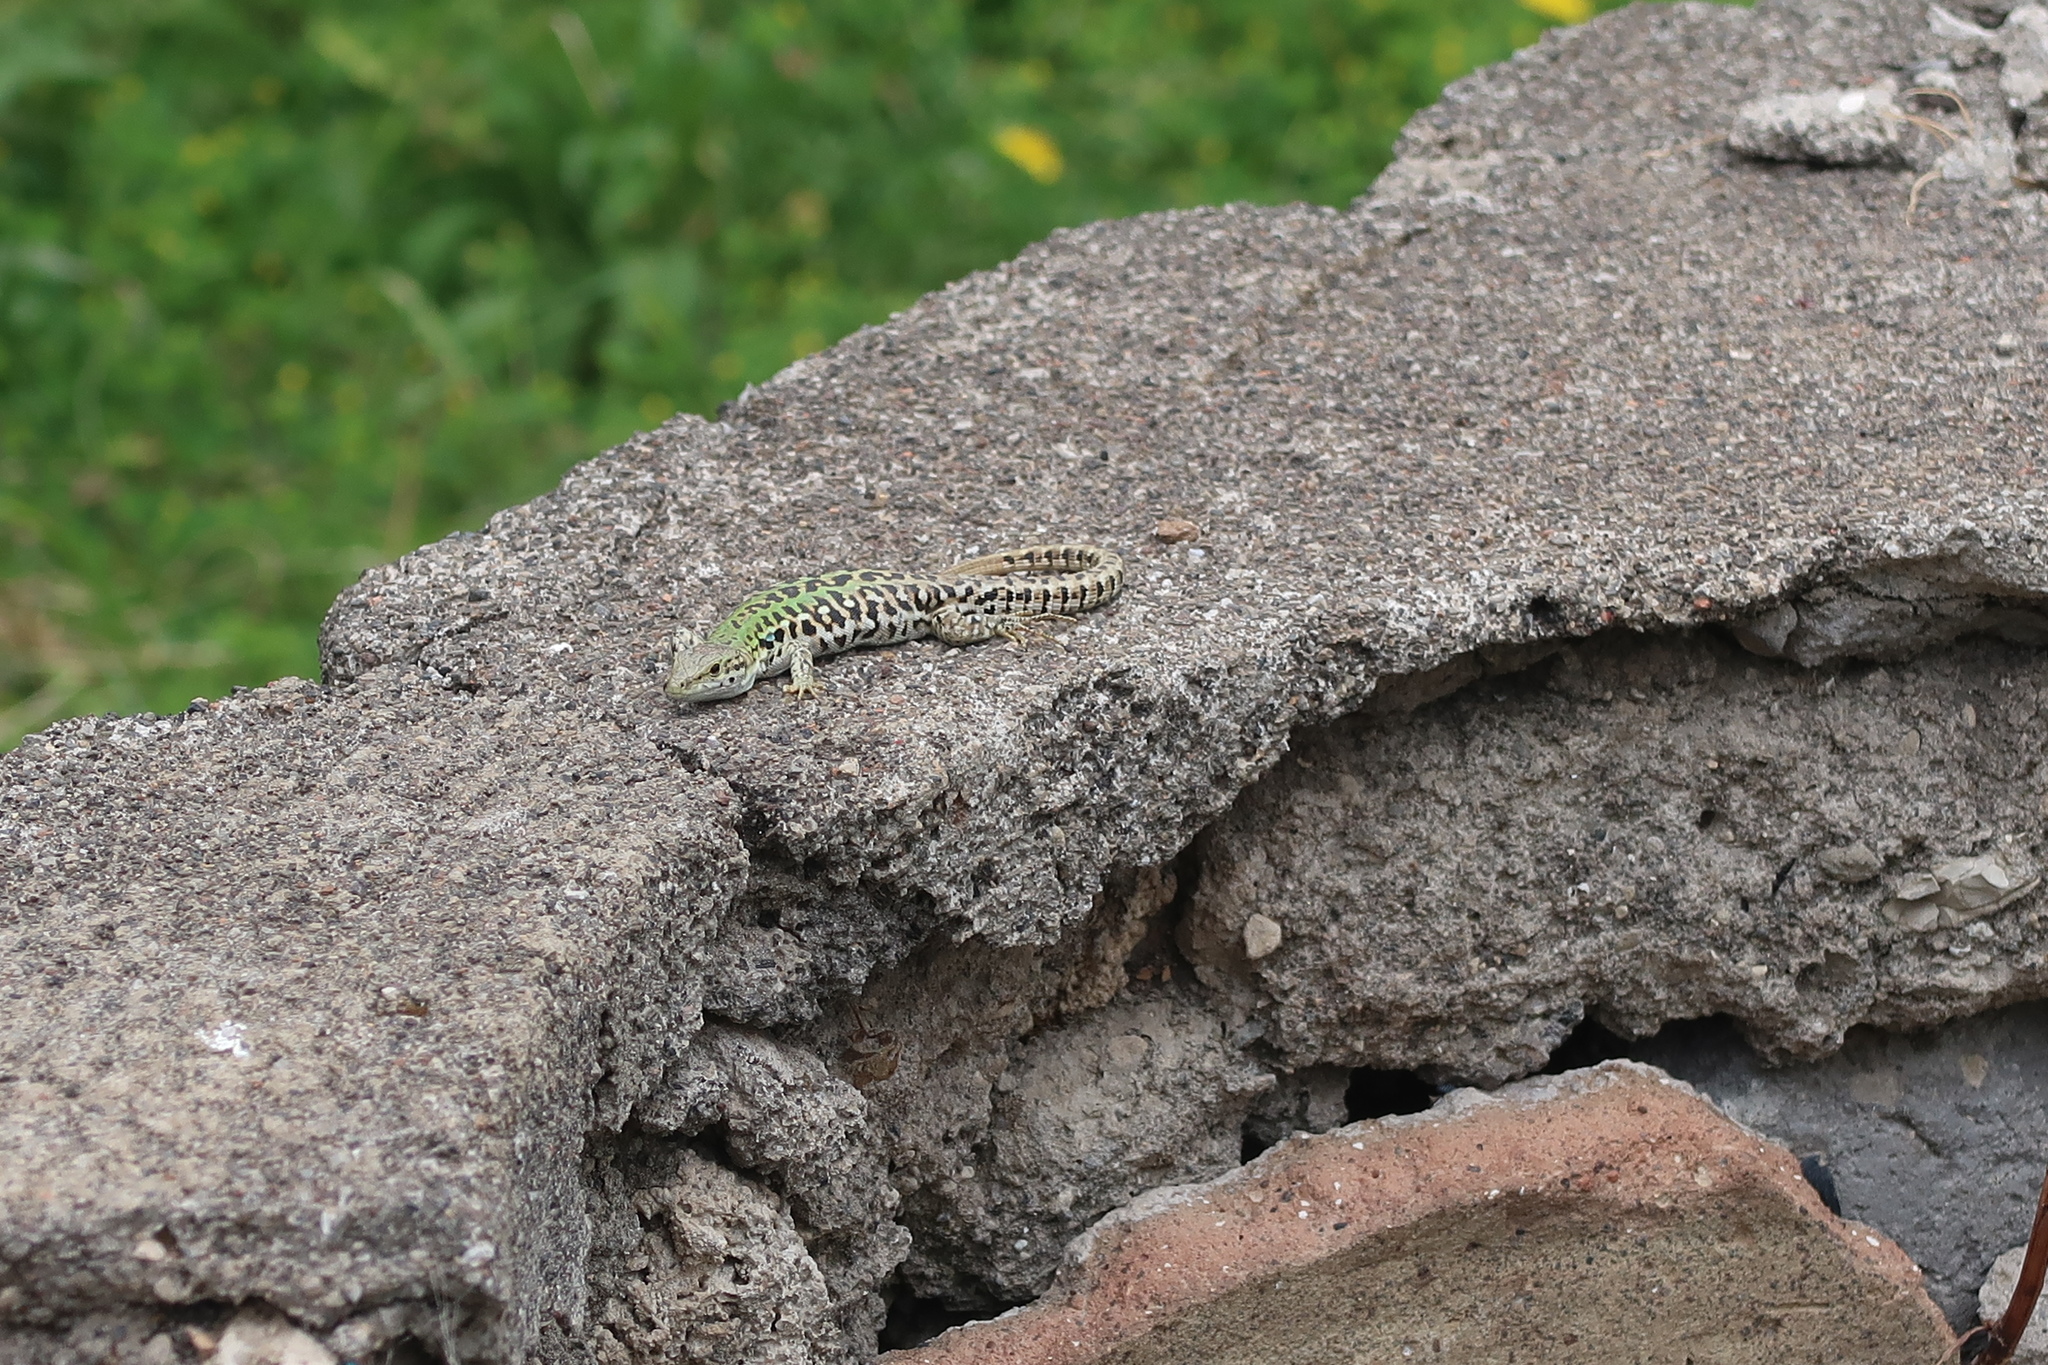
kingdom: Animalia
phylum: Chordata
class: Squamata
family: Lacertidae
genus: Podarcis
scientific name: Podarcis siculus
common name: Italian wall lizard
